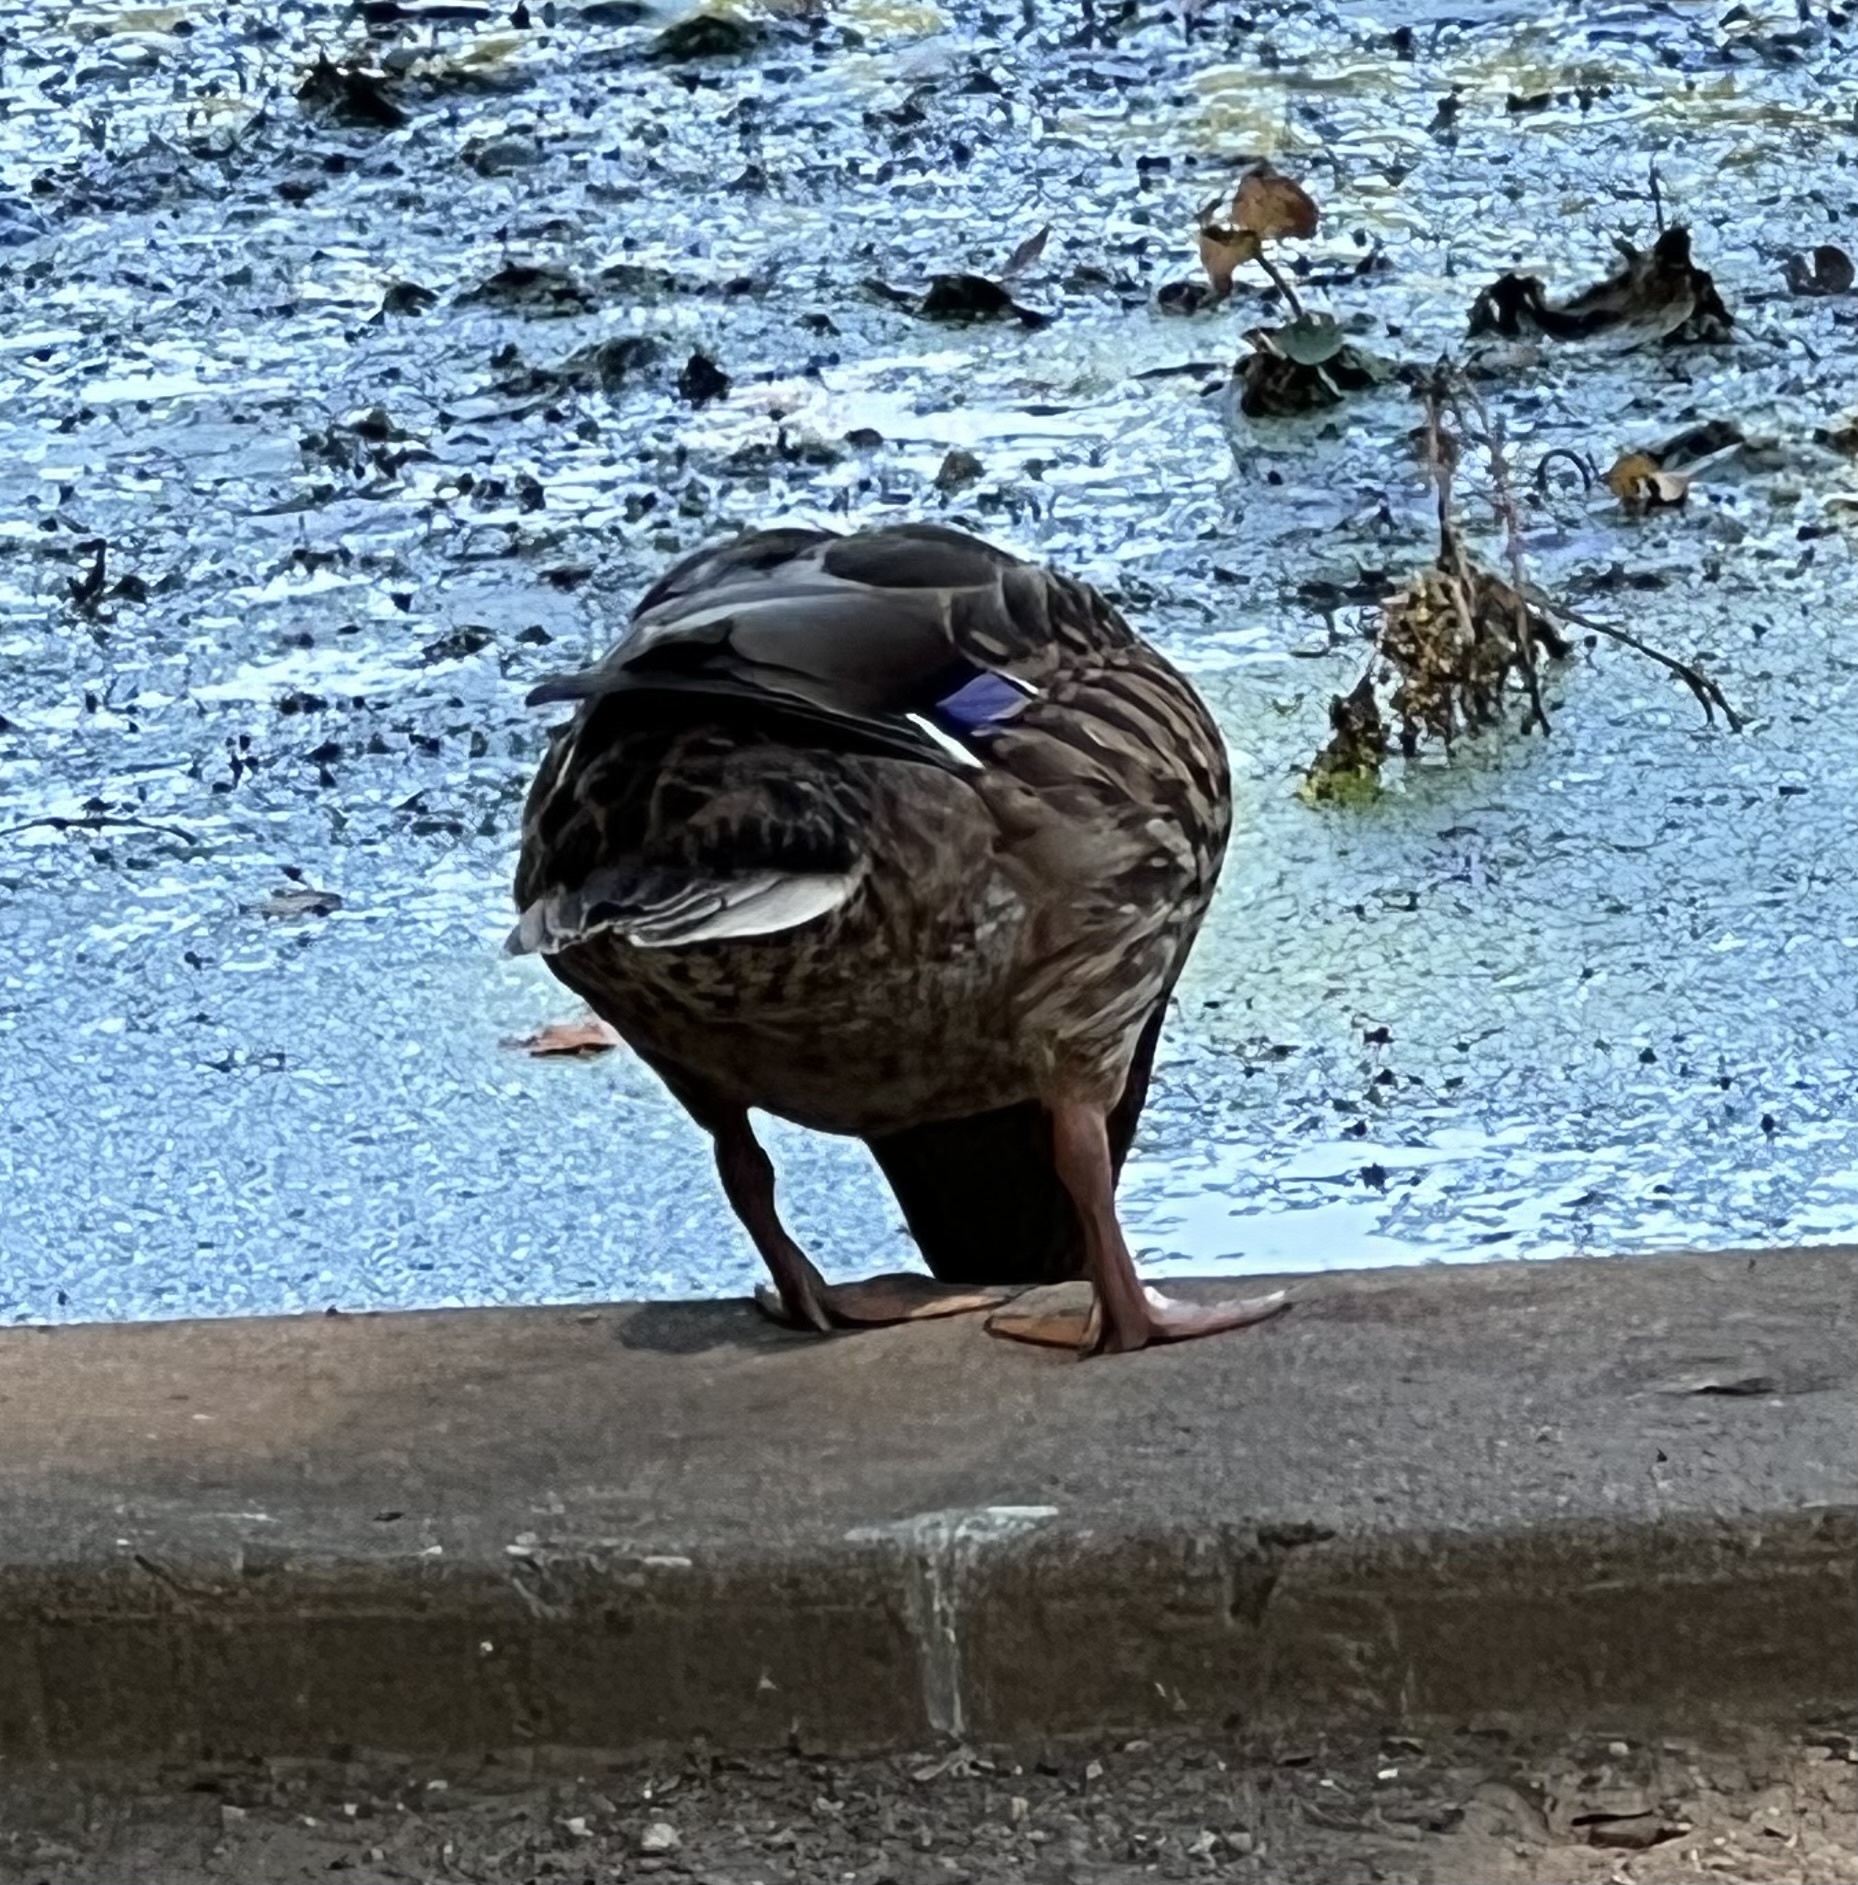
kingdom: Animalia
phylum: Chordata
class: Aves
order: Anseriformes
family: Anatidae
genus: Anas
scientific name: Anas platyrhynchos
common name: Mallard
